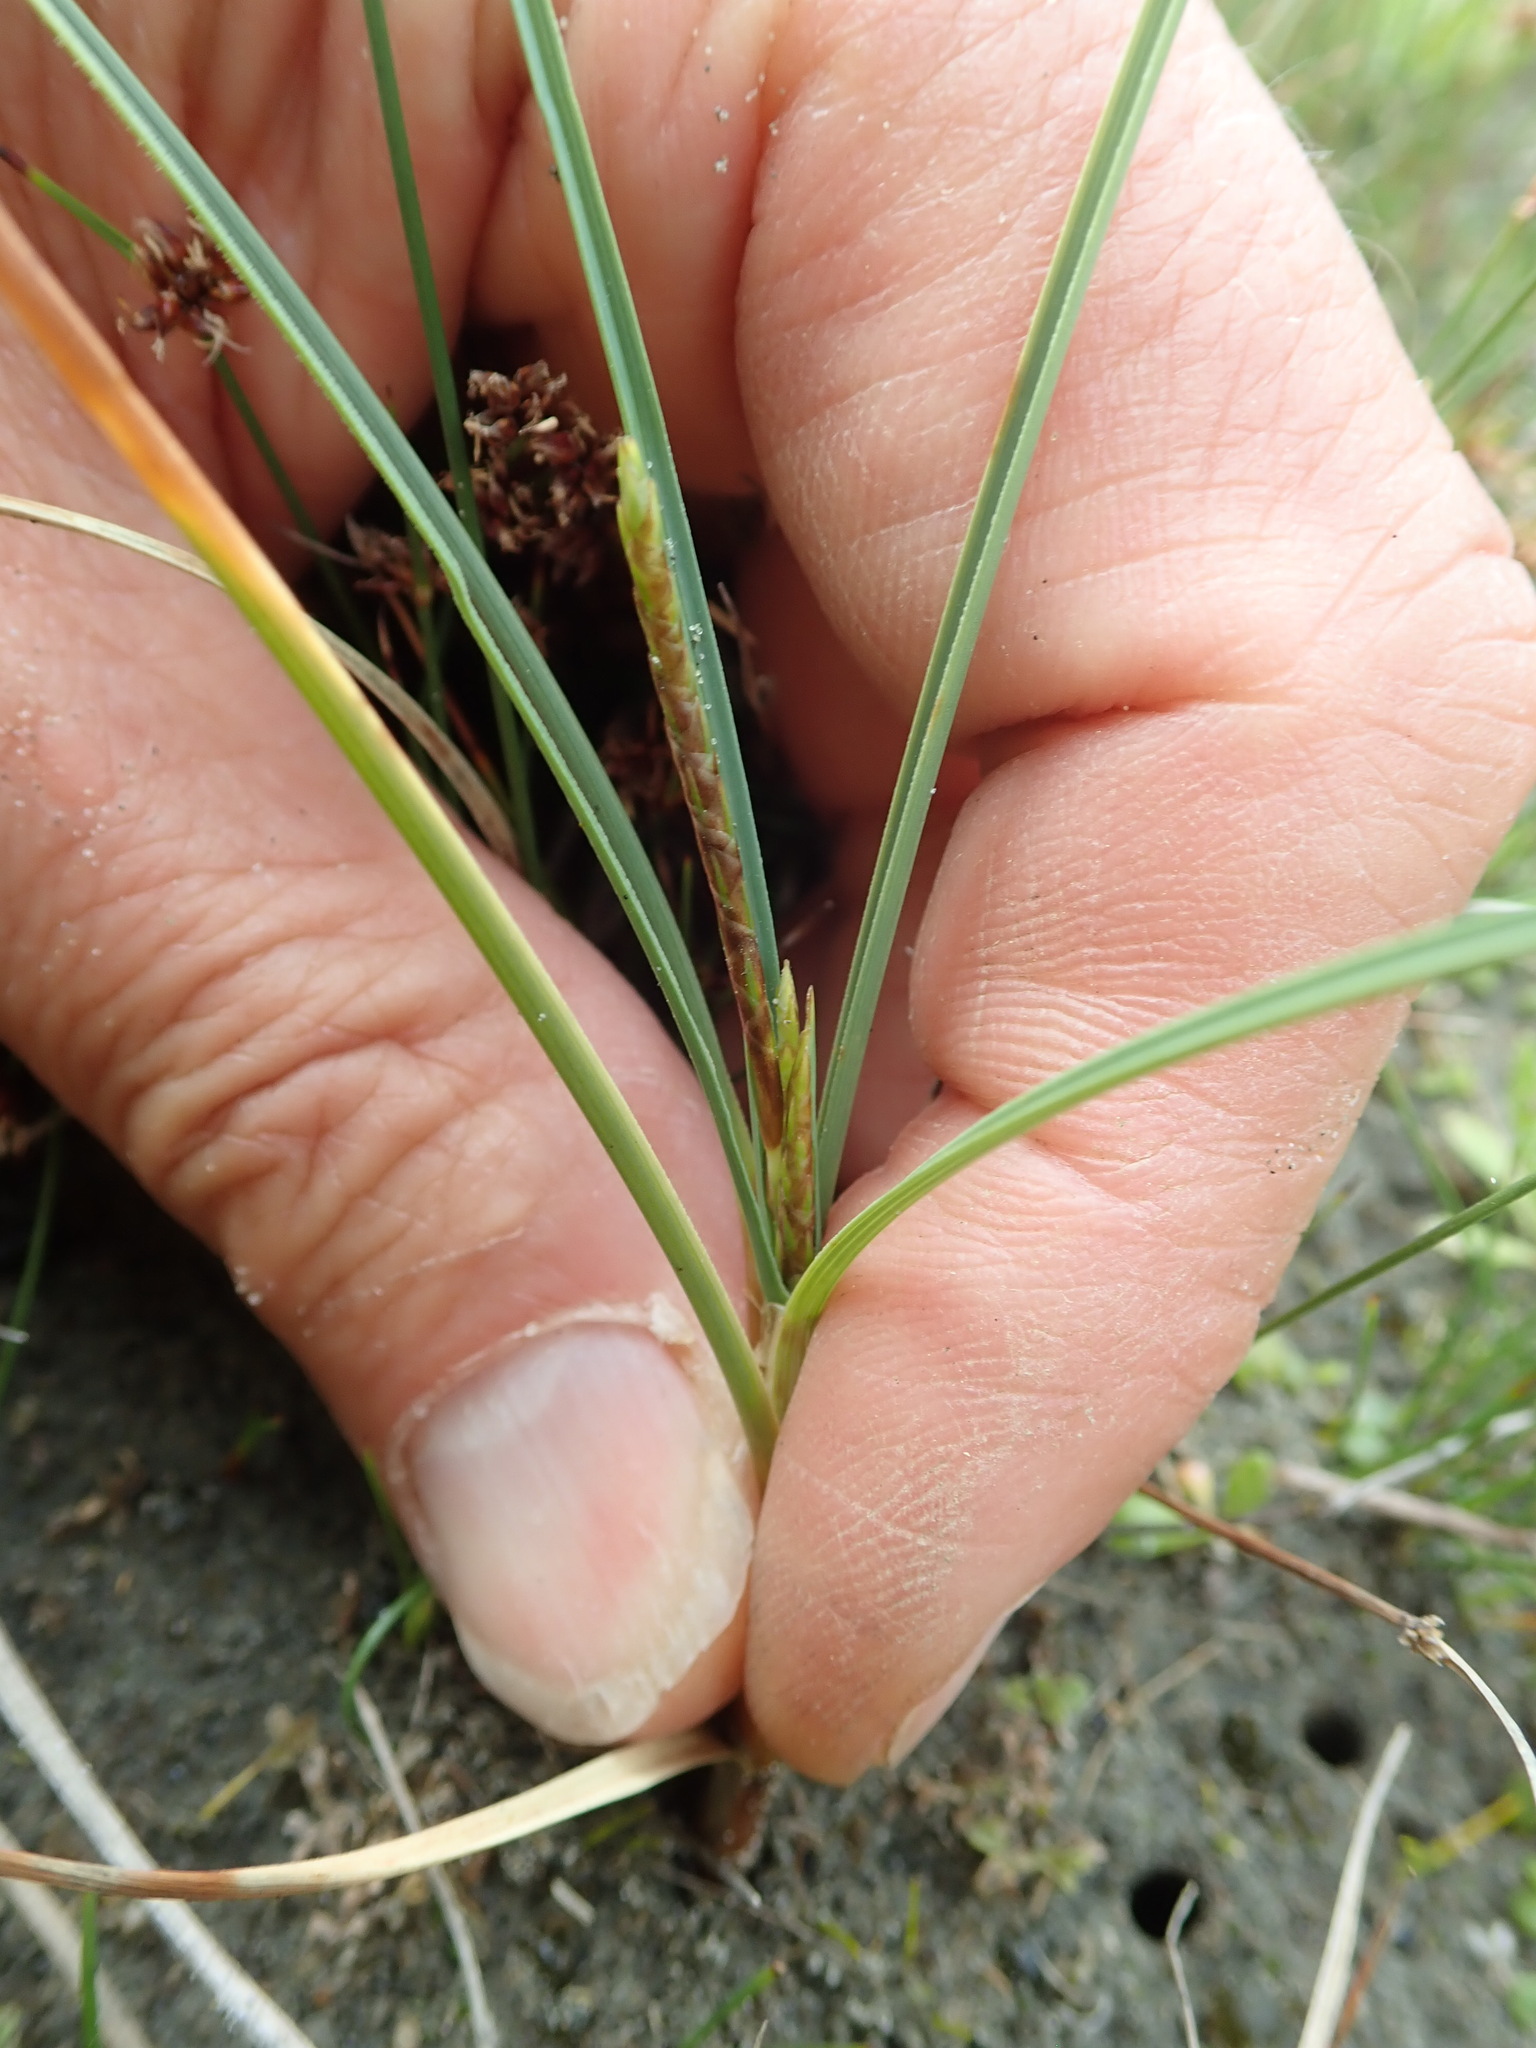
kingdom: Plantae
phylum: Tracheophyta
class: Liliopsida
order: Poales
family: Cyperaceae
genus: Carex
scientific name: Carex pumila
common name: Dwarf sedge
